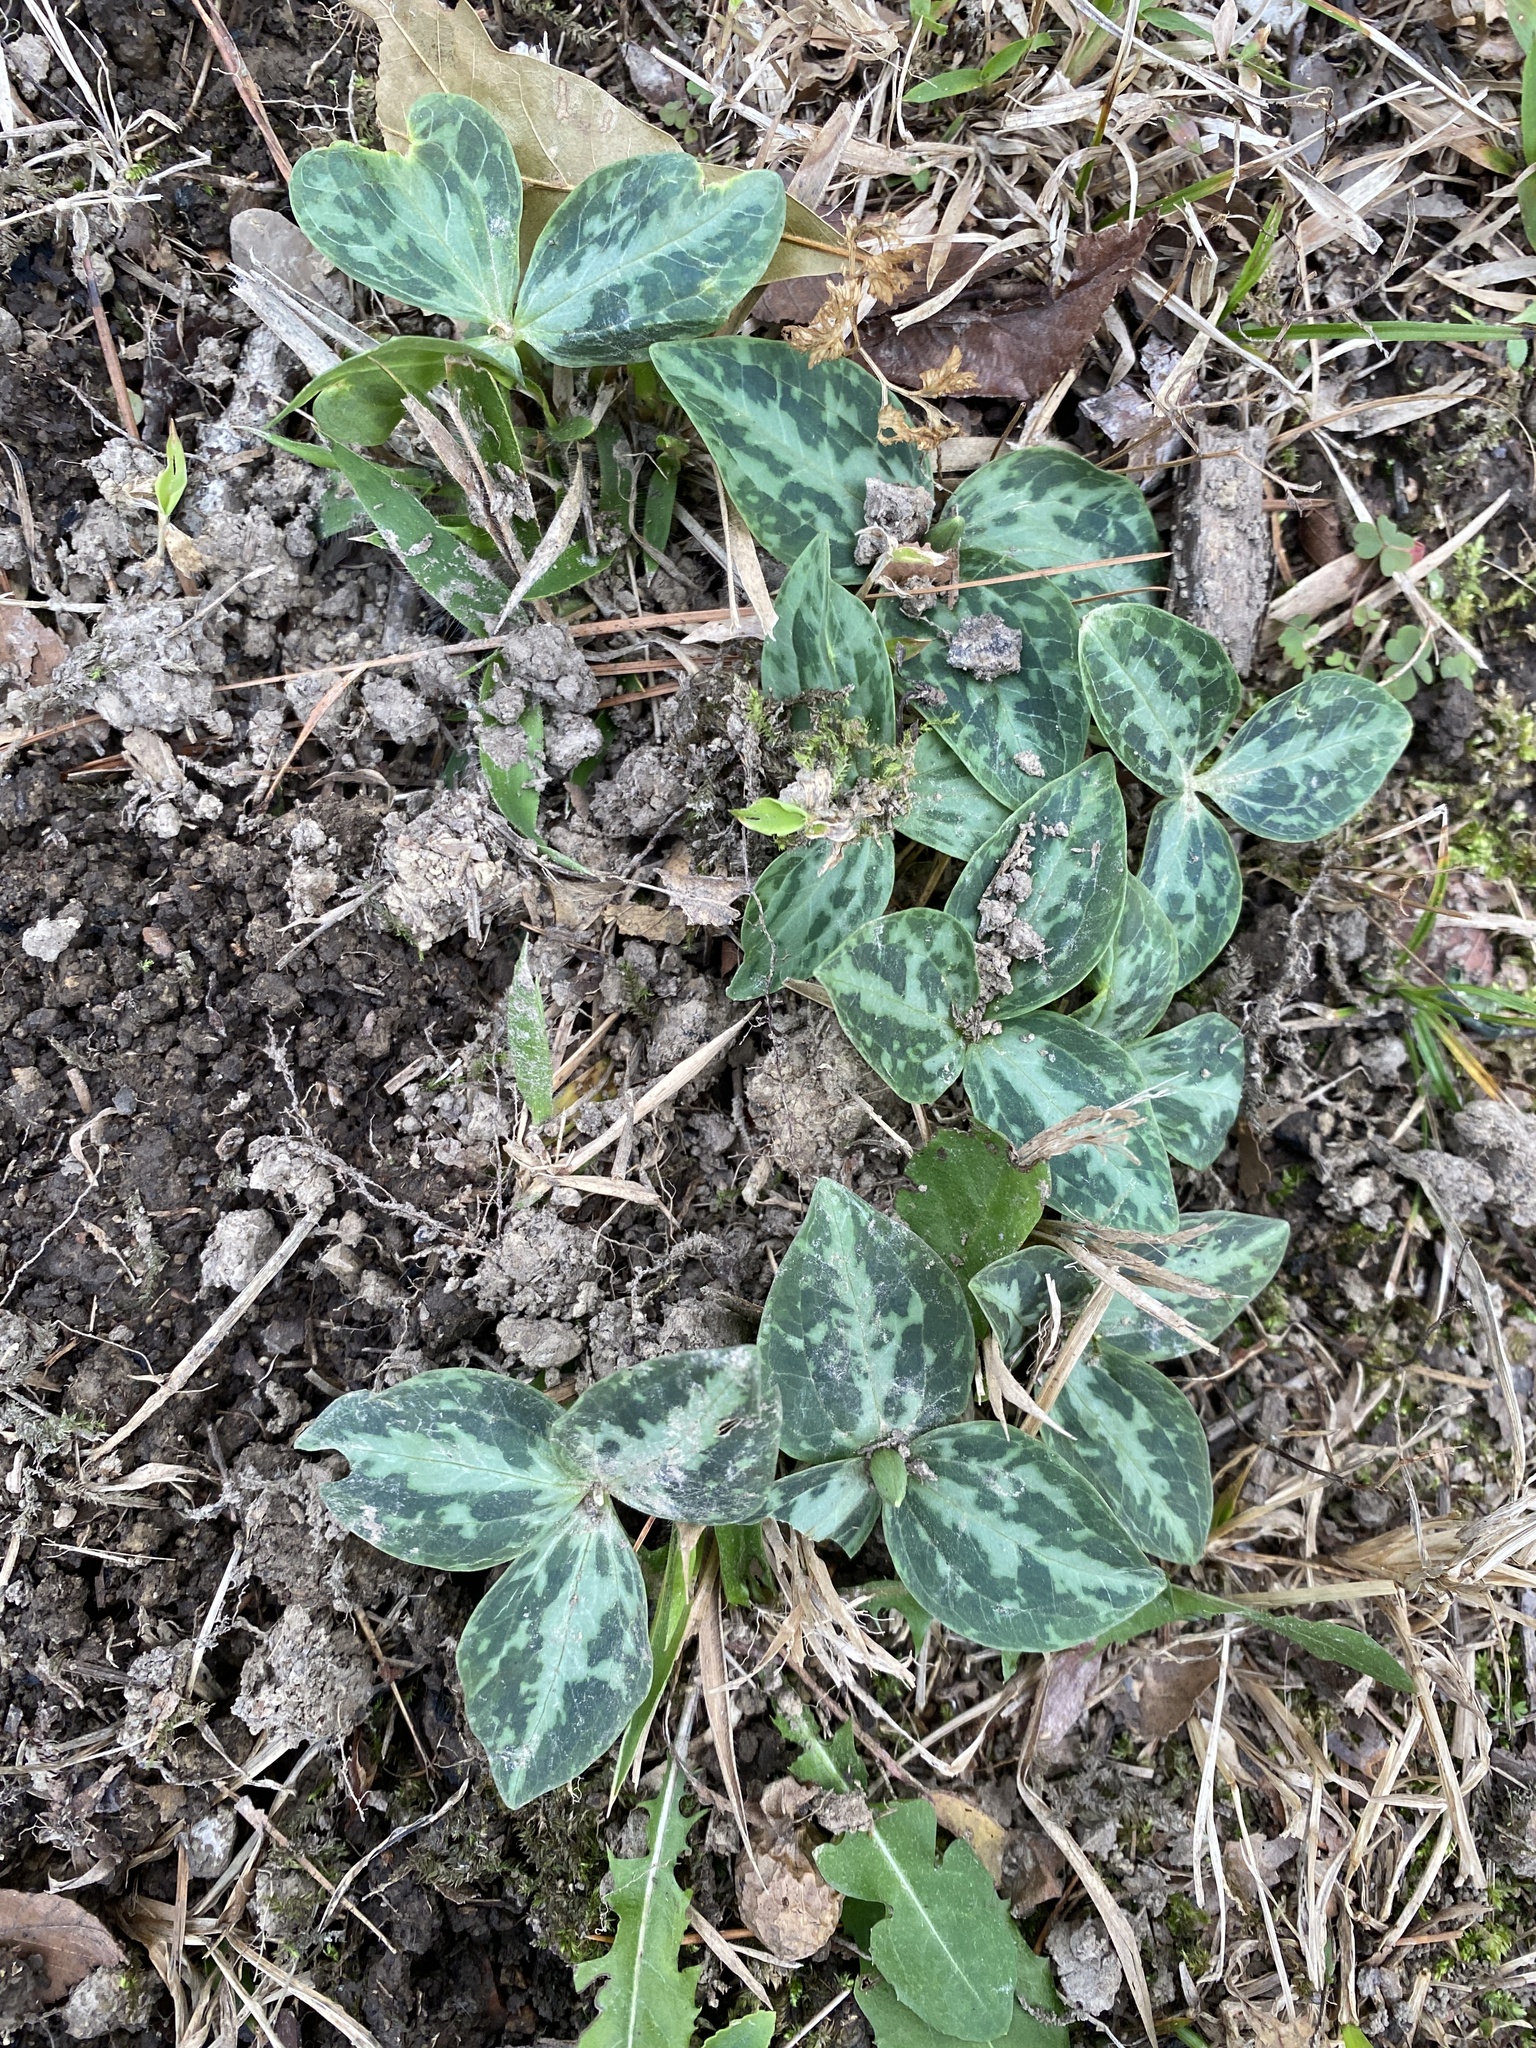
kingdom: Plantae
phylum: Tracheophyta
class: Liliopsida
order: Liliales
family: Melanthiaceae
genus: Trillium
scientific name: Trillium foetidissimum
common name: Mississippi river trillium
